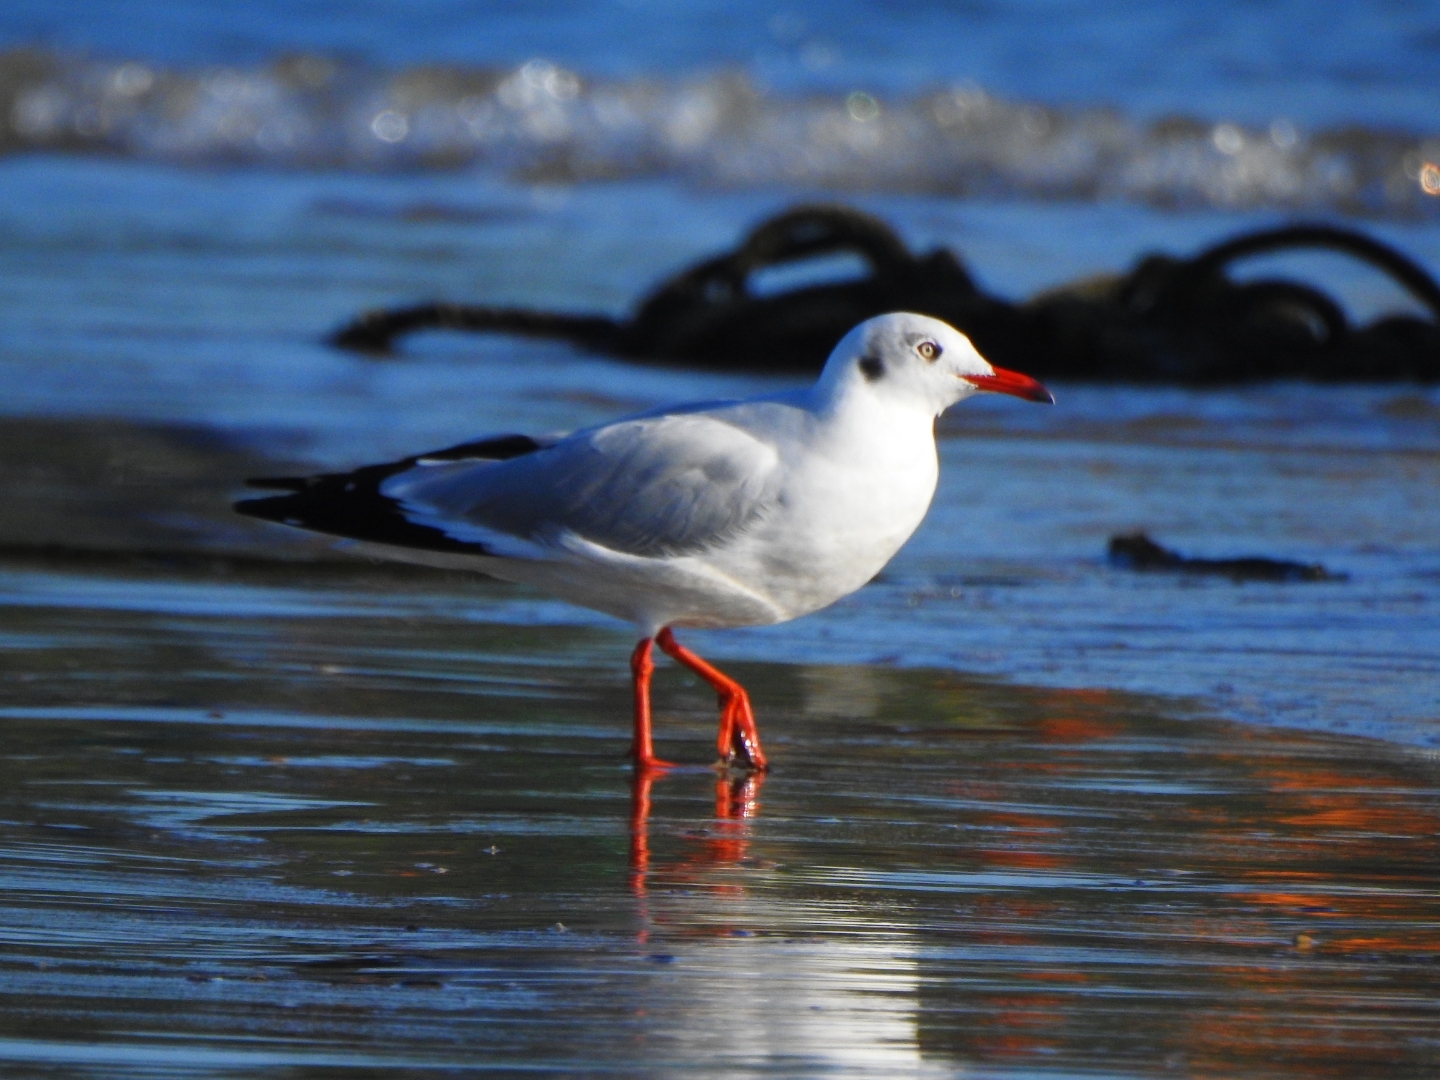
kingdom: Animalia
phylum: Chordata
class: Aves
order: Charadriiformes
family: Laridae
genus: Chroicocephalus
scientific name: Chroicocephalus brunnicephalus
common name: Brown-headed gull
